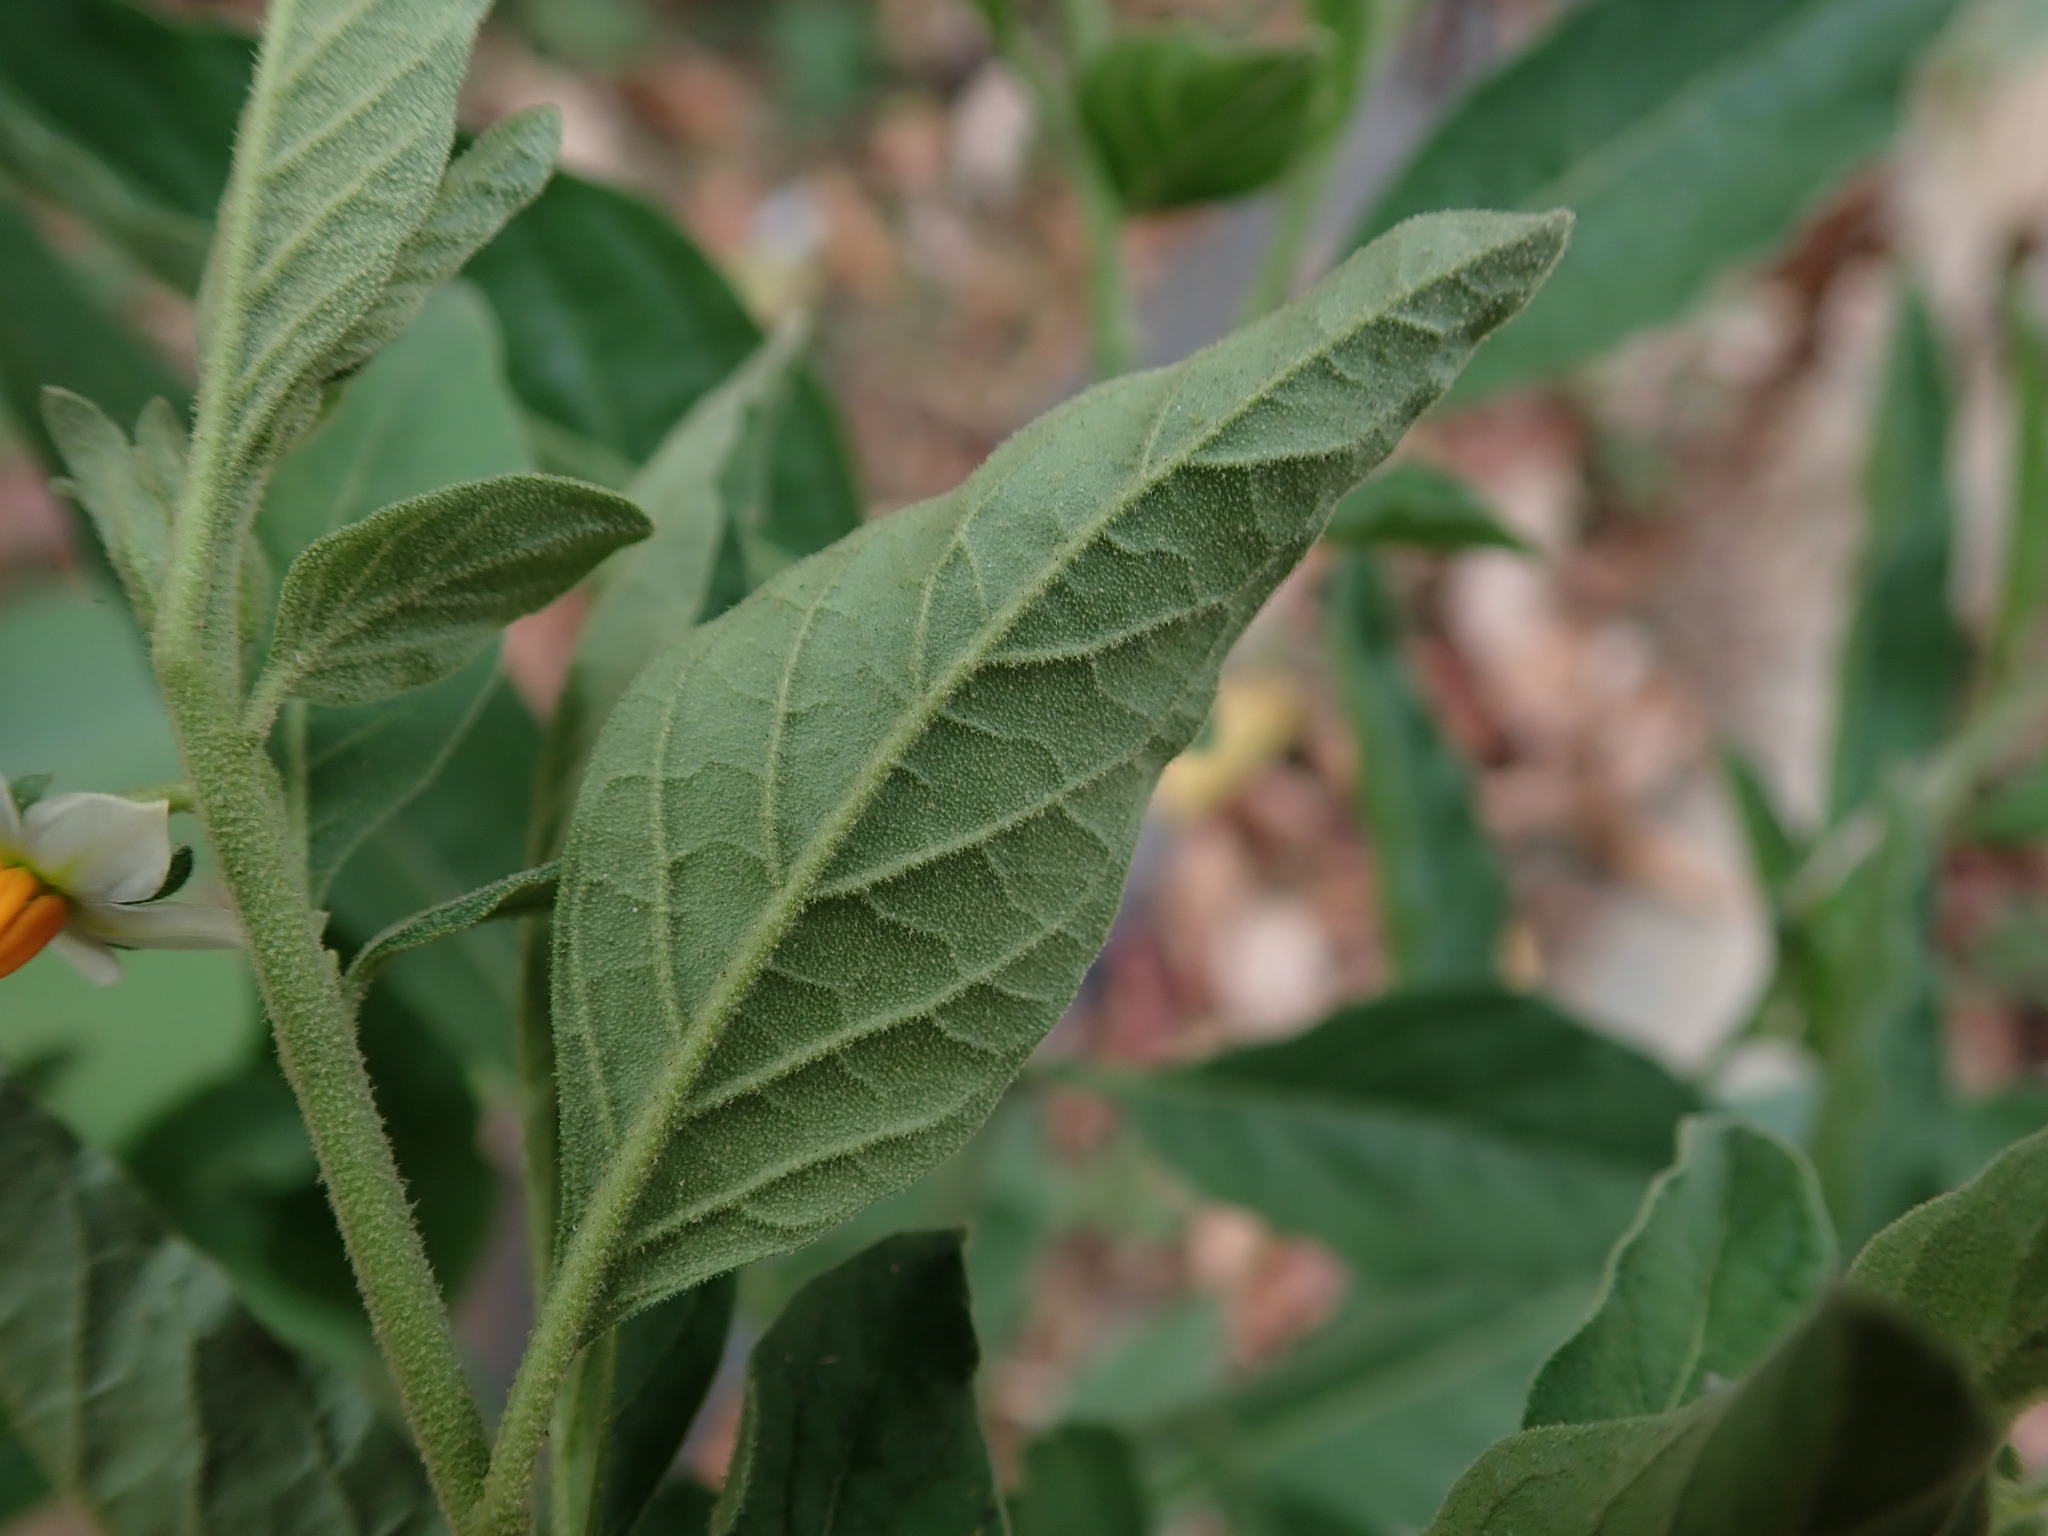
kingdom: Plantae
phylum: Tracheophyta
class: Magnoliopsida
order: Solanales
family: Solanaceae
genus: Solanum
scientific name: Solanum pseudocapsicum
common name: Jerusalem cherry
